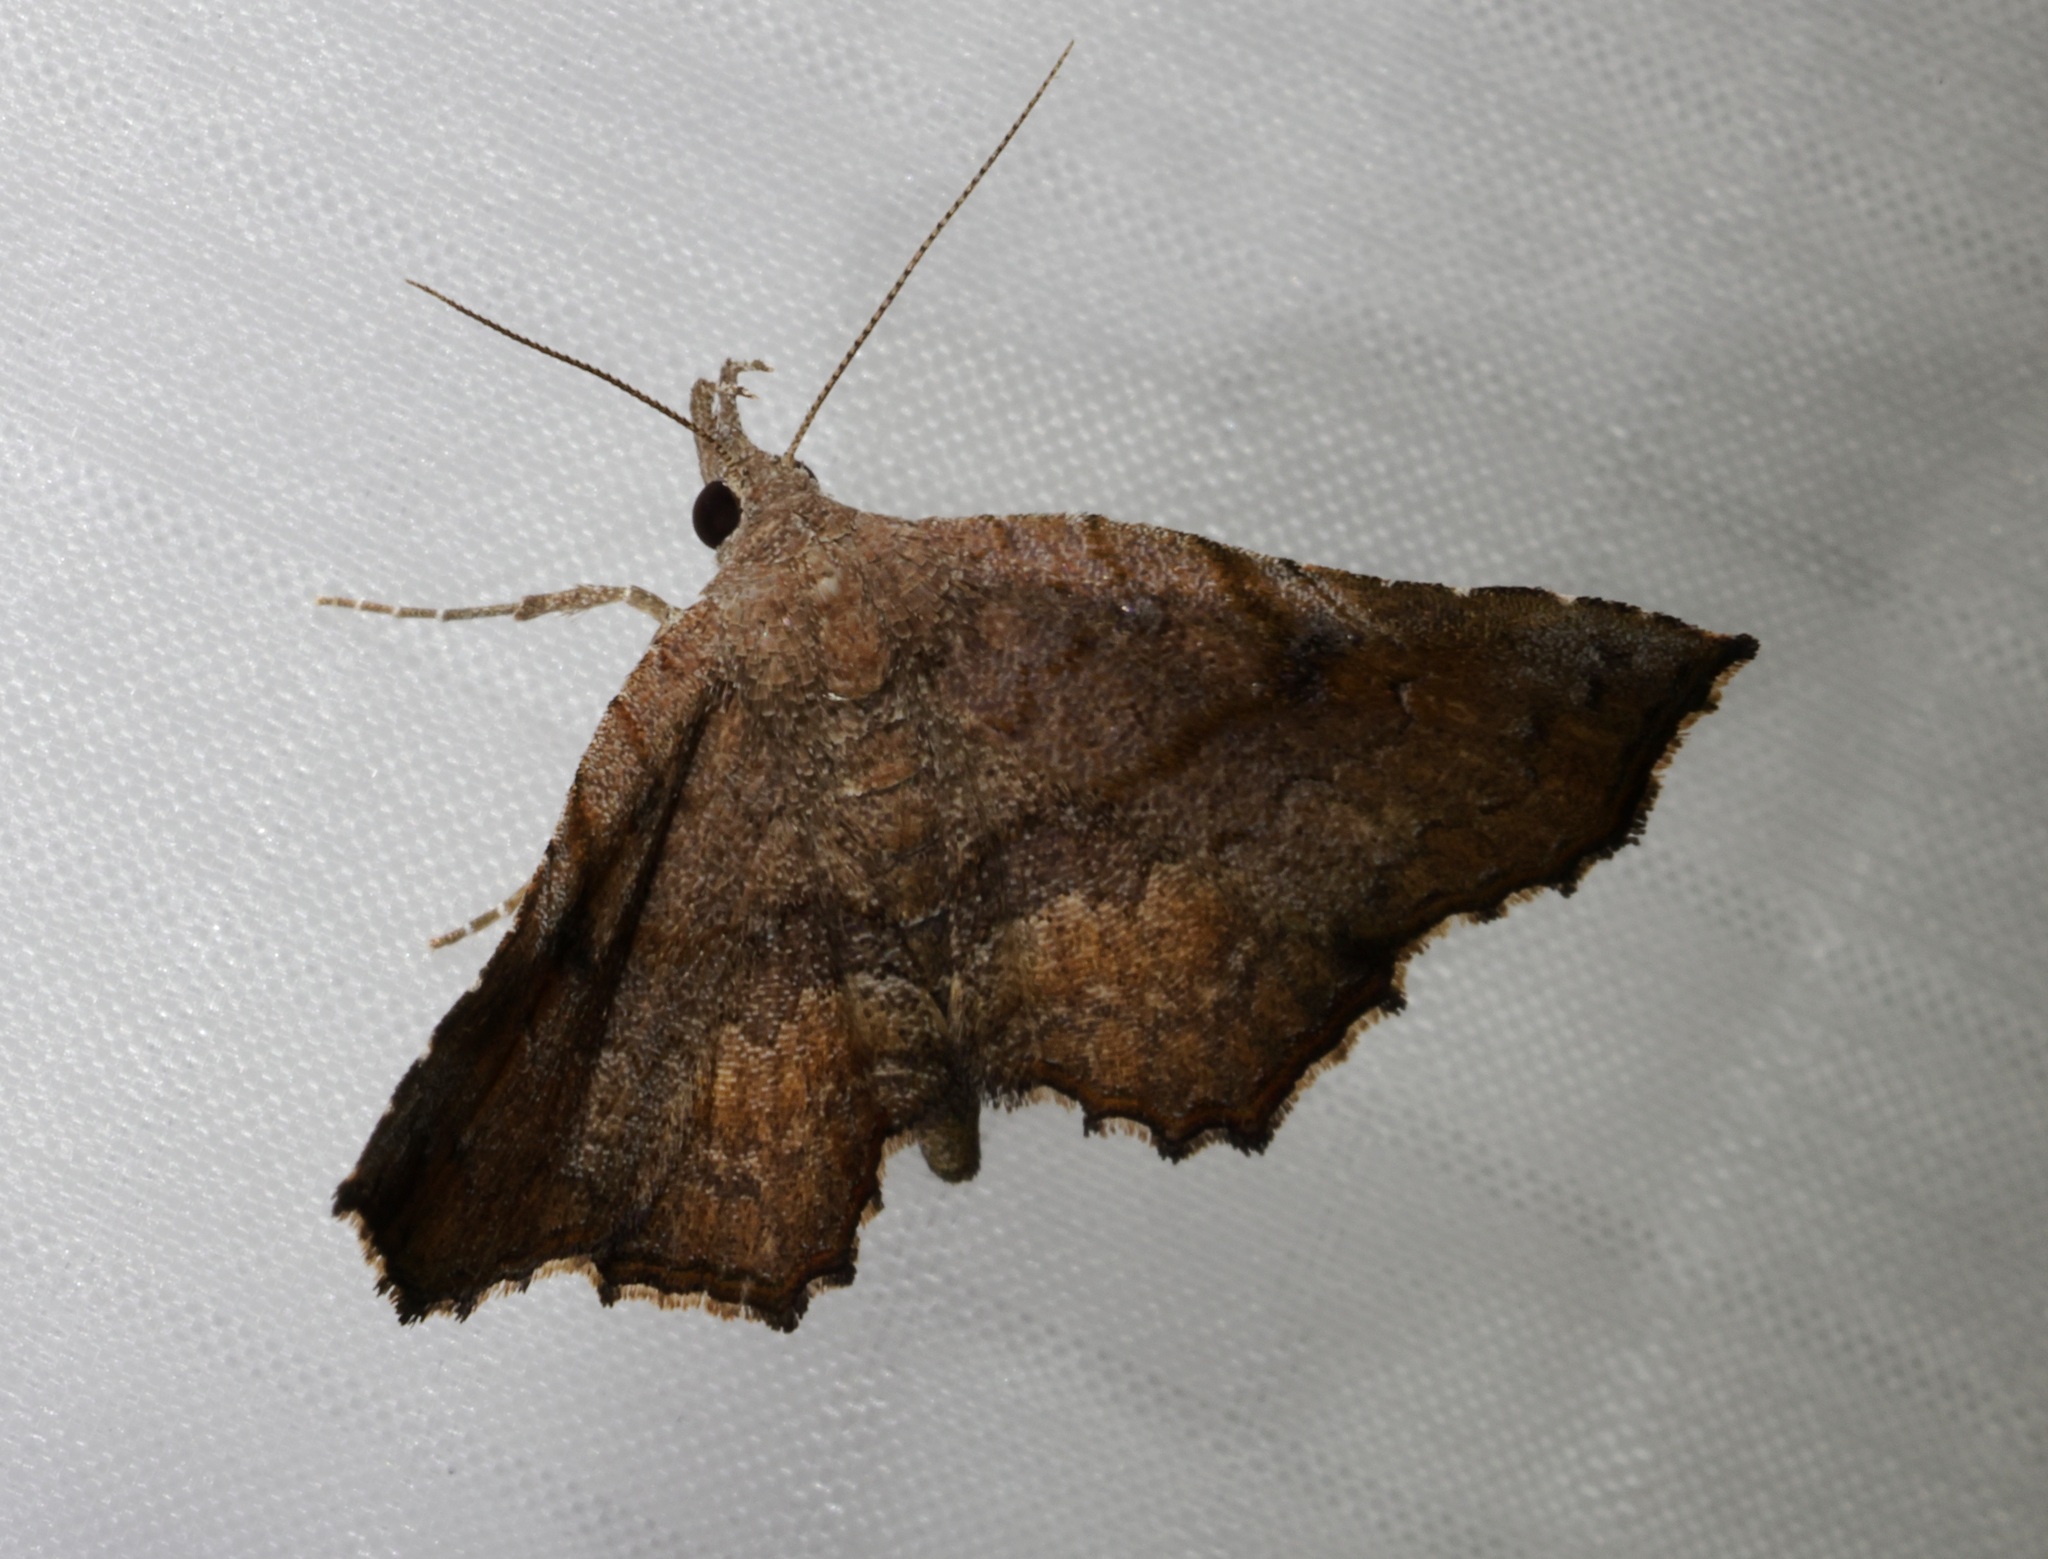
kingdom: Animalia
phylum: Arthropoda
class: Insecta
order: Lepidoptera
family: Erebidae
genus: Throana
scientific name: Throana pectinifer
